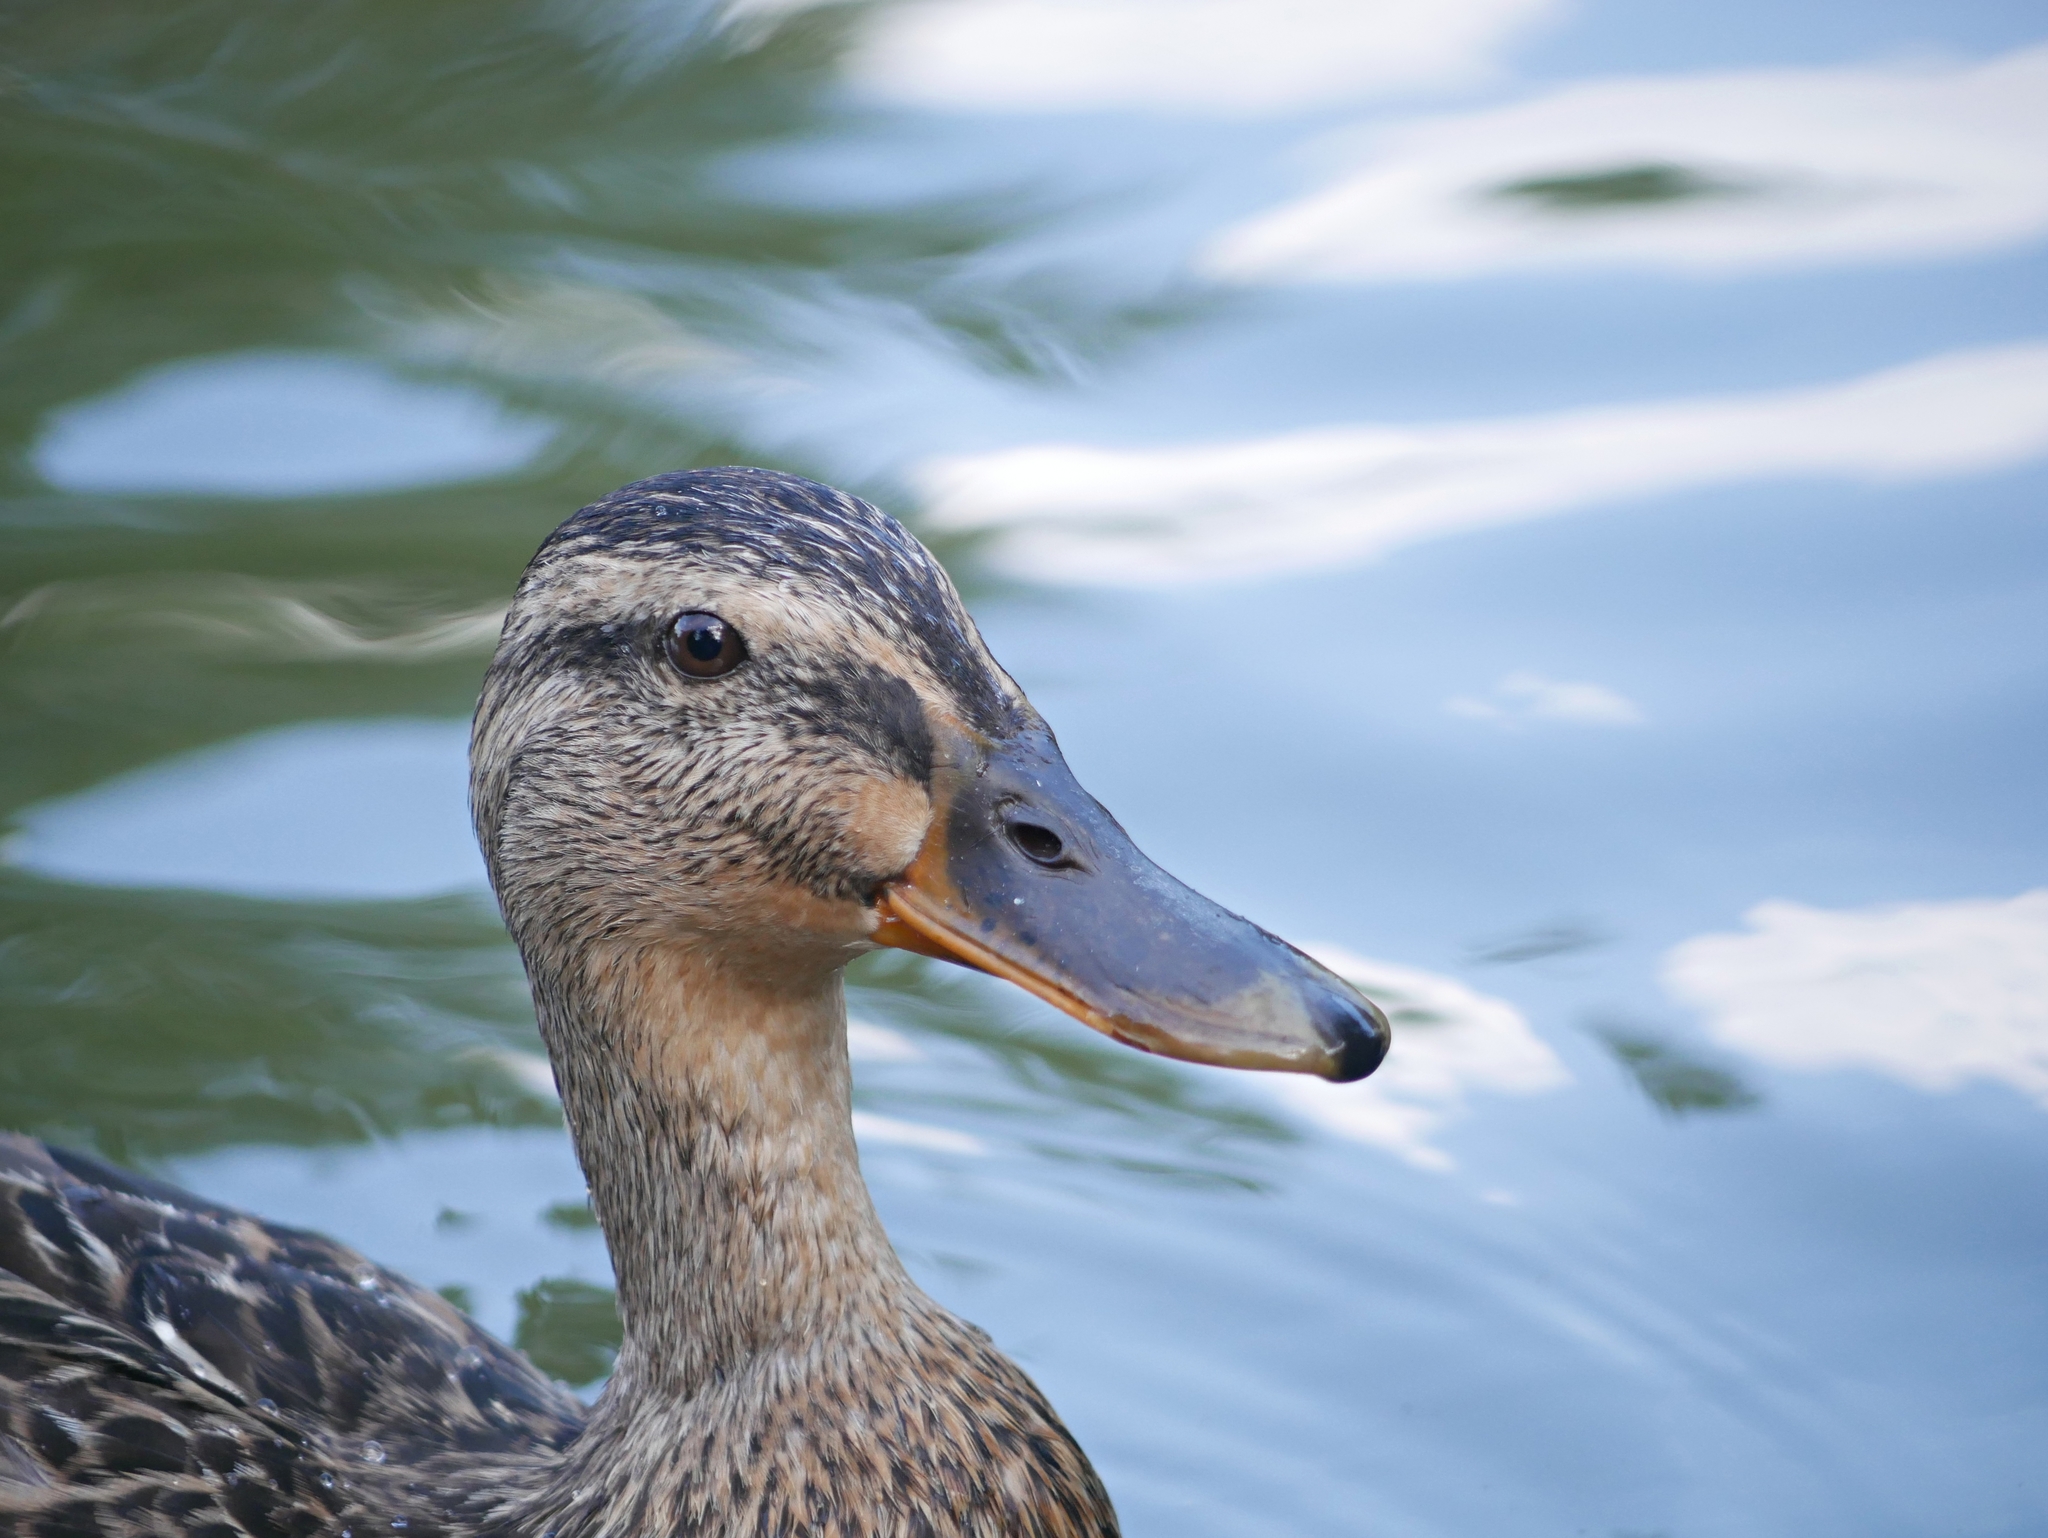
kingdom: Animalia
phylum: Chordata
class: Aves
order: Anseriformes
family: Anatidae
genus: Anas
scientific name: Anas platyrhynchos
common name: Mallard
